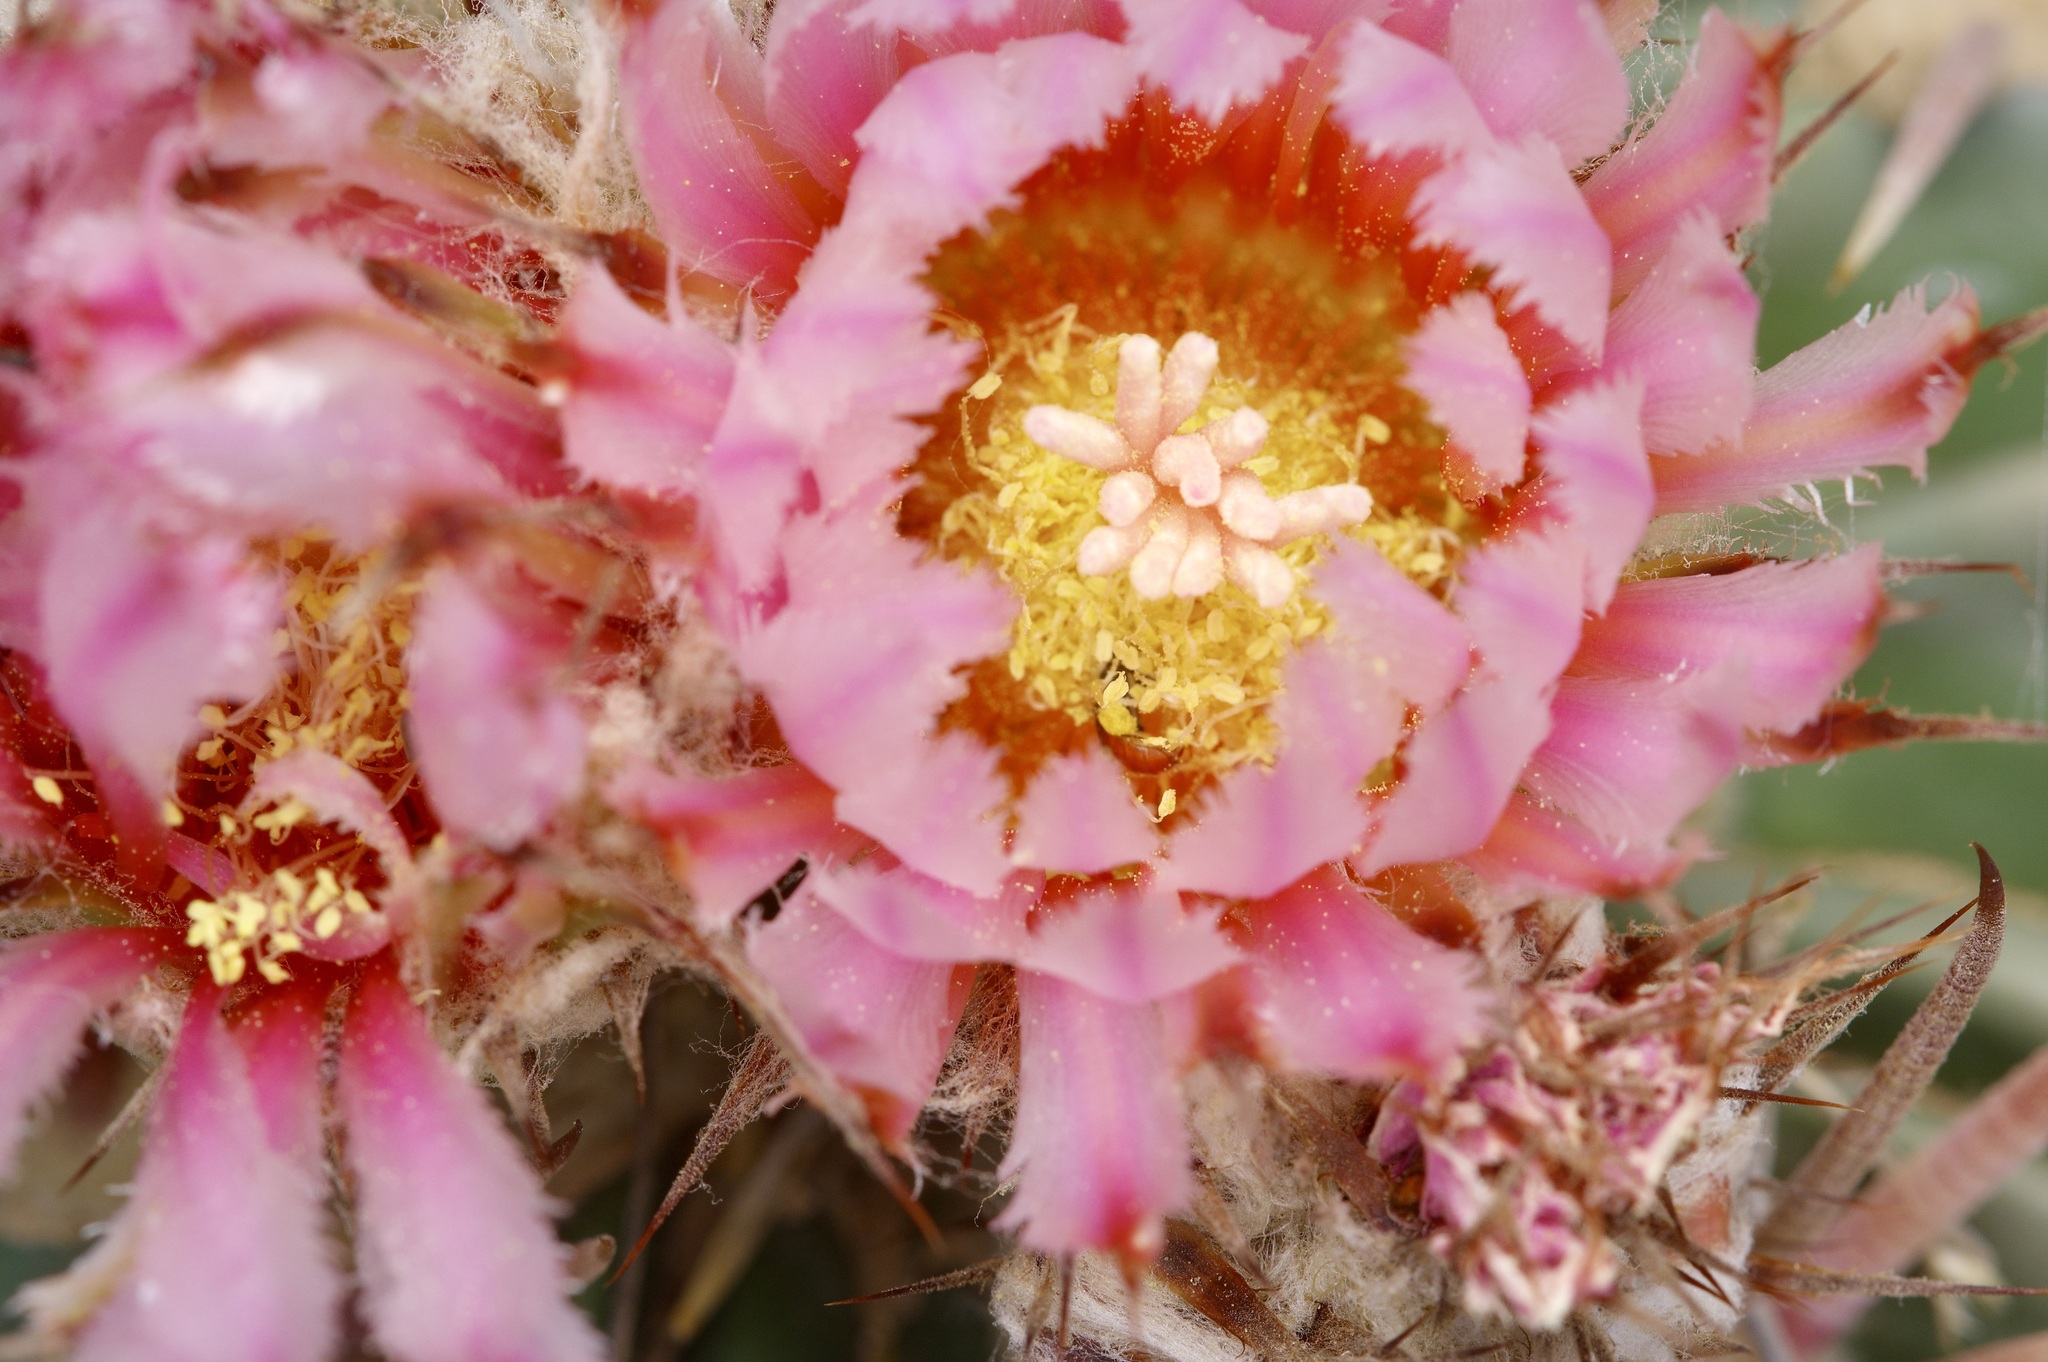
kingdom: Plantae
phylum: Tracheophyta
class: Magnoliopsida
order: Caryophyllales
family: Cactaceae
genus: Echinocactus
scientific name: Echinocactus texensis
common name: Devil's pincushion
